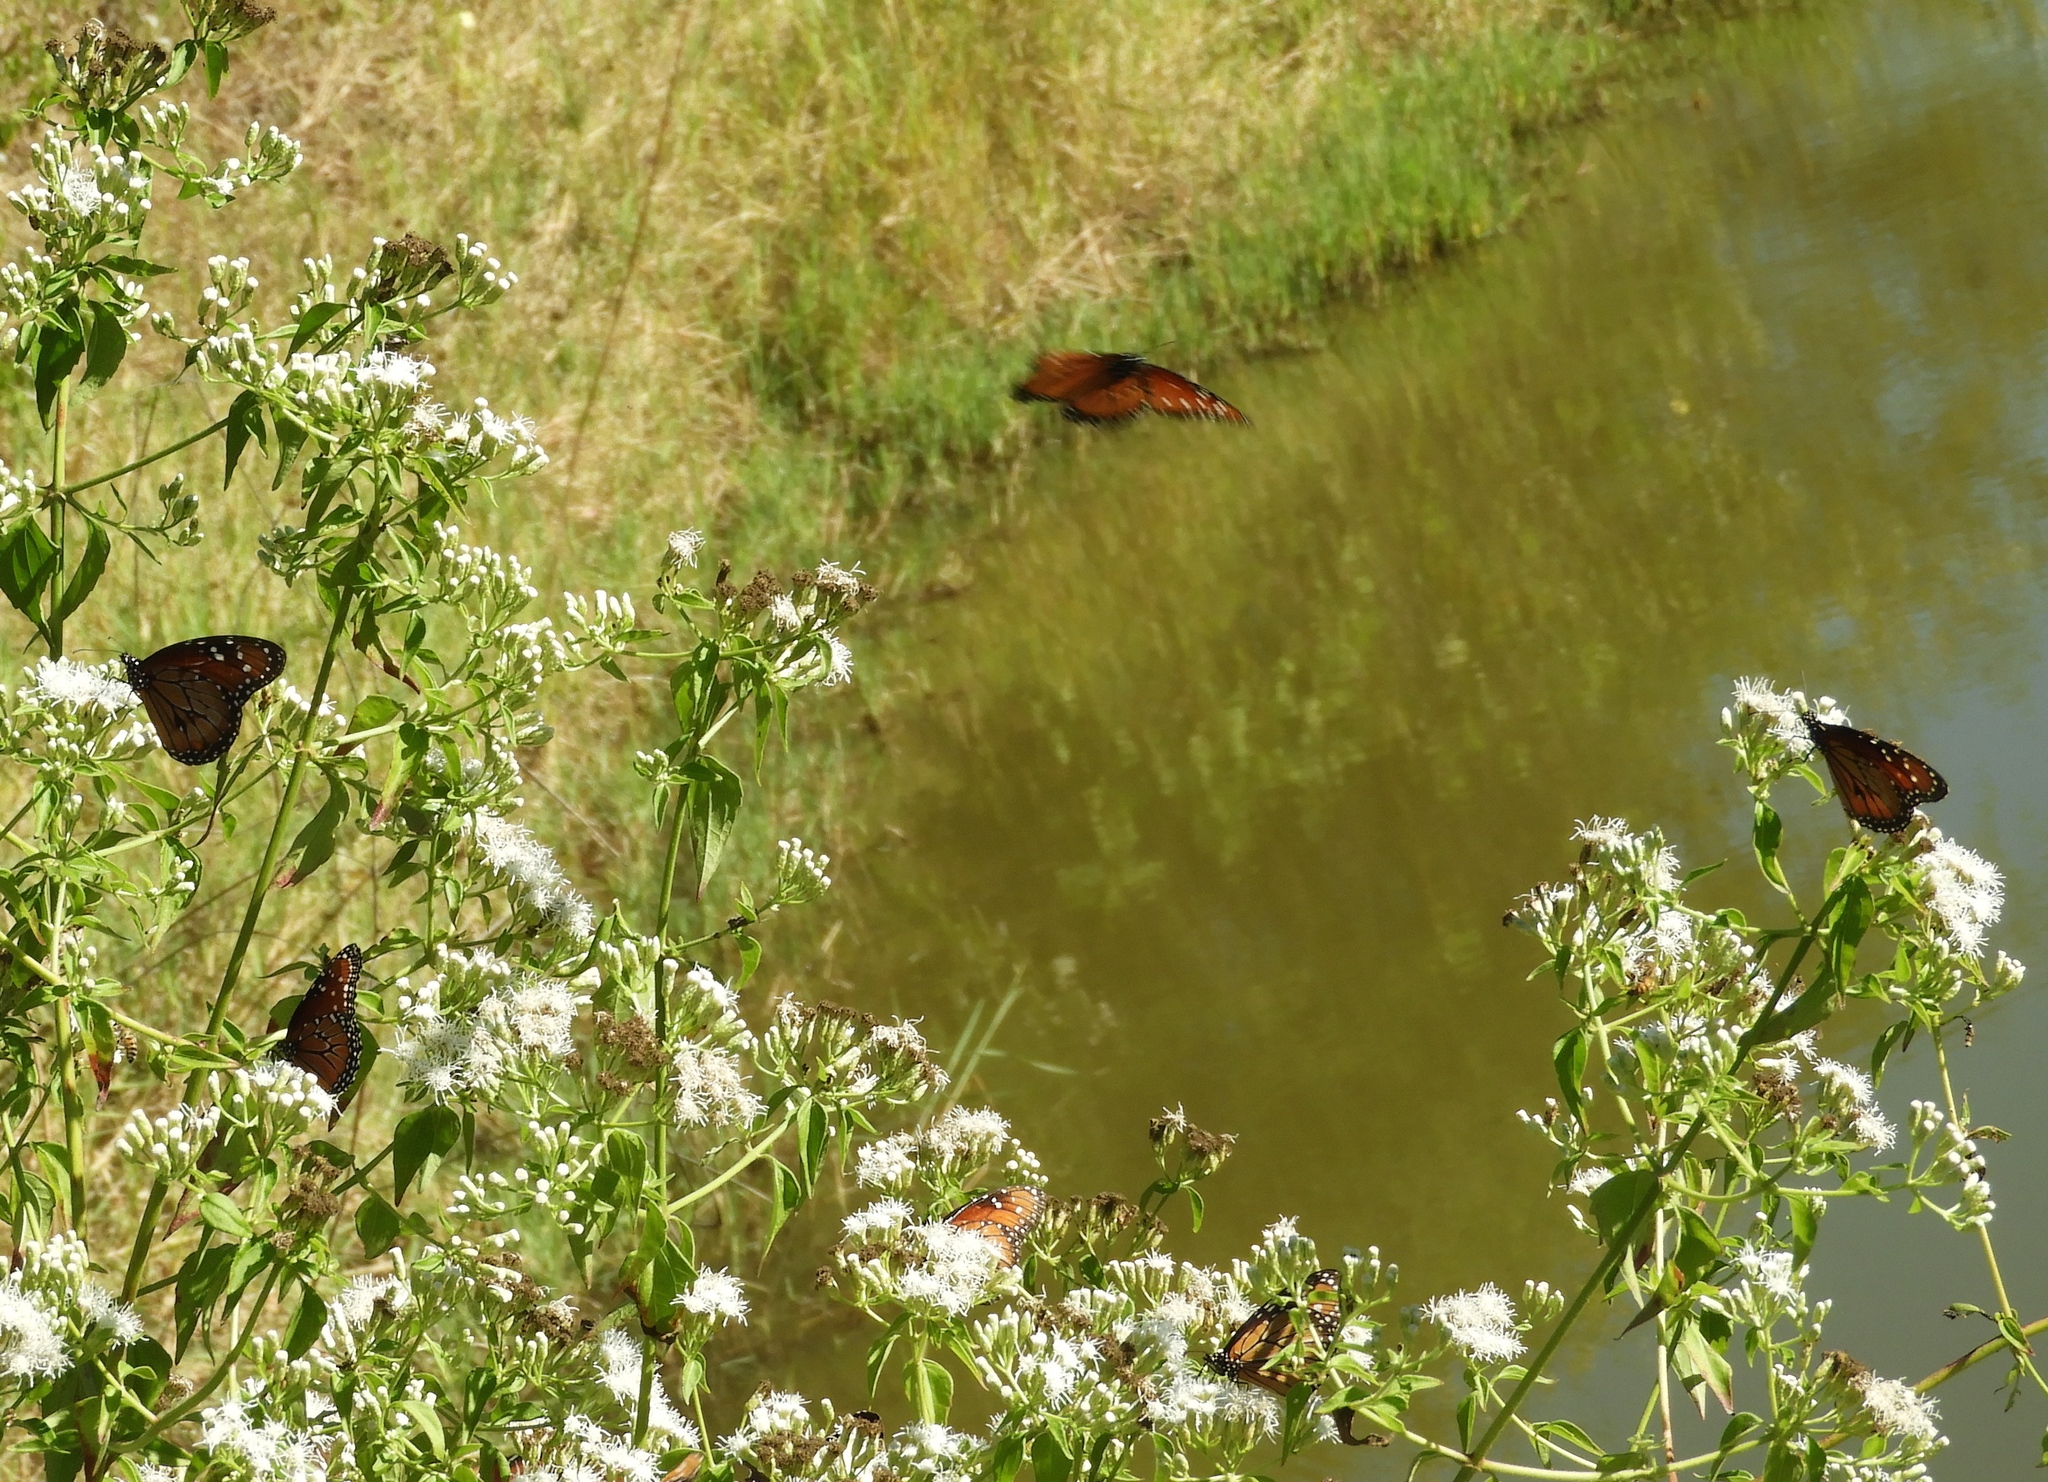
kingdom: Animalia
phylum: Arthropoda
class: Insecta
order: Lepidoptera
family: Nymphalidae
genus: Danaus
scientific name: Danaus eresimus
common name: Soldier
